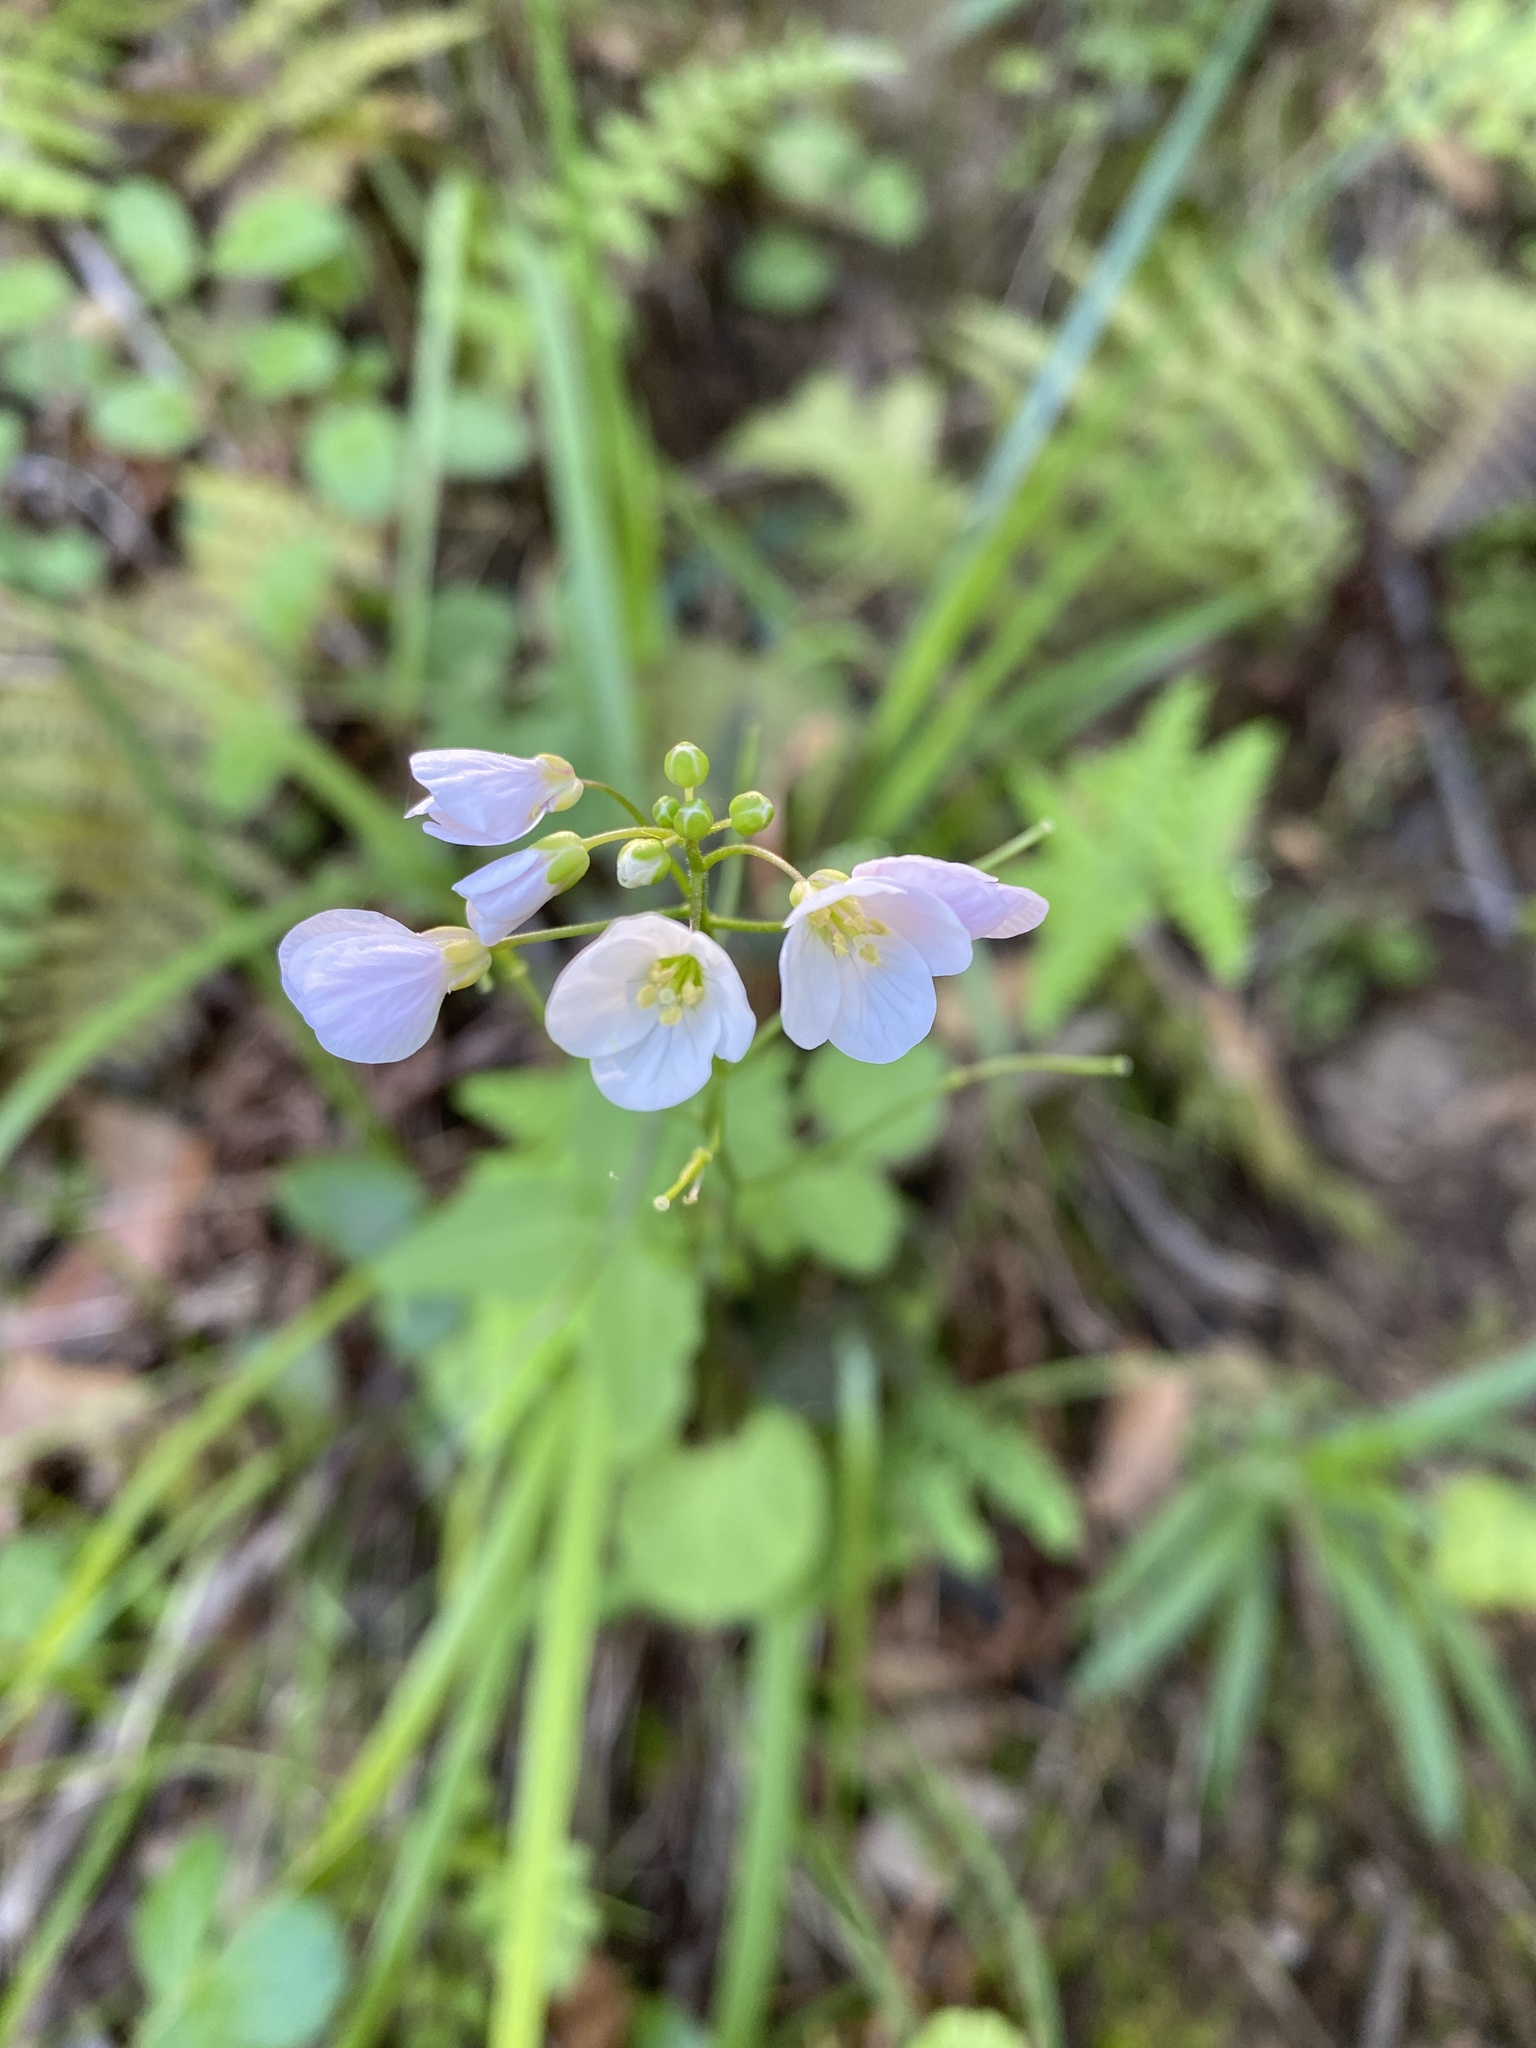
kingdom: Plantae
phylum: Tracheophyta
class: Magnoliopsida
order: Brassicales
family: Brassicaceae
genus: Cardamine
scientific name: Cardamine californica
